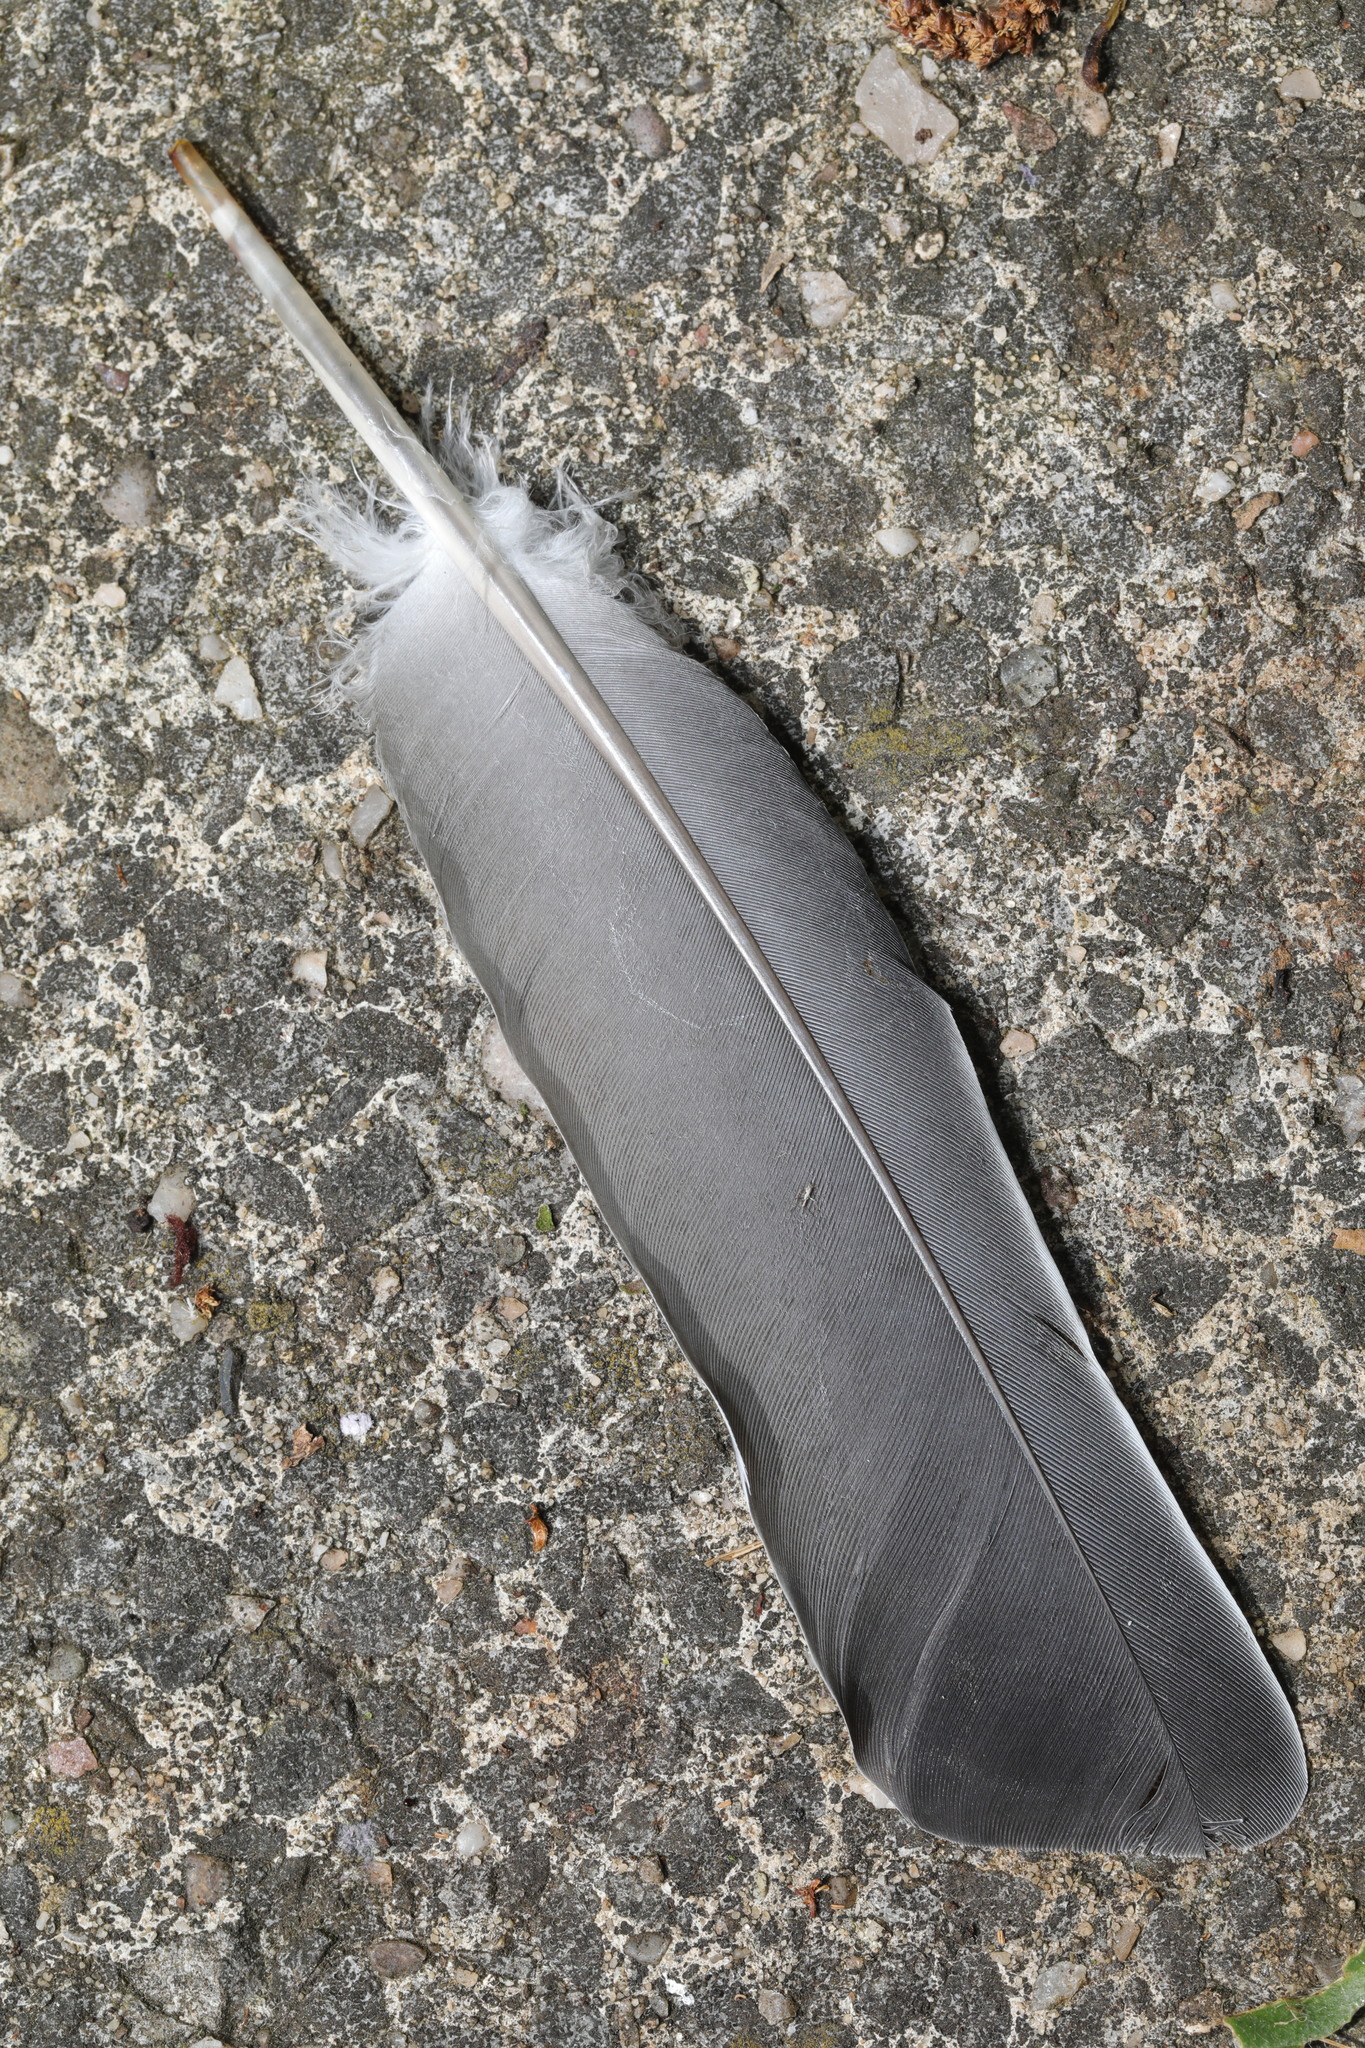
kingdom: Animalia
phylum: Chordata
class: Aves
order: Columbiformes
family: Columbidae
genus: Columba
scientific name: Columba palumbus
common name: Common wood pigeon
